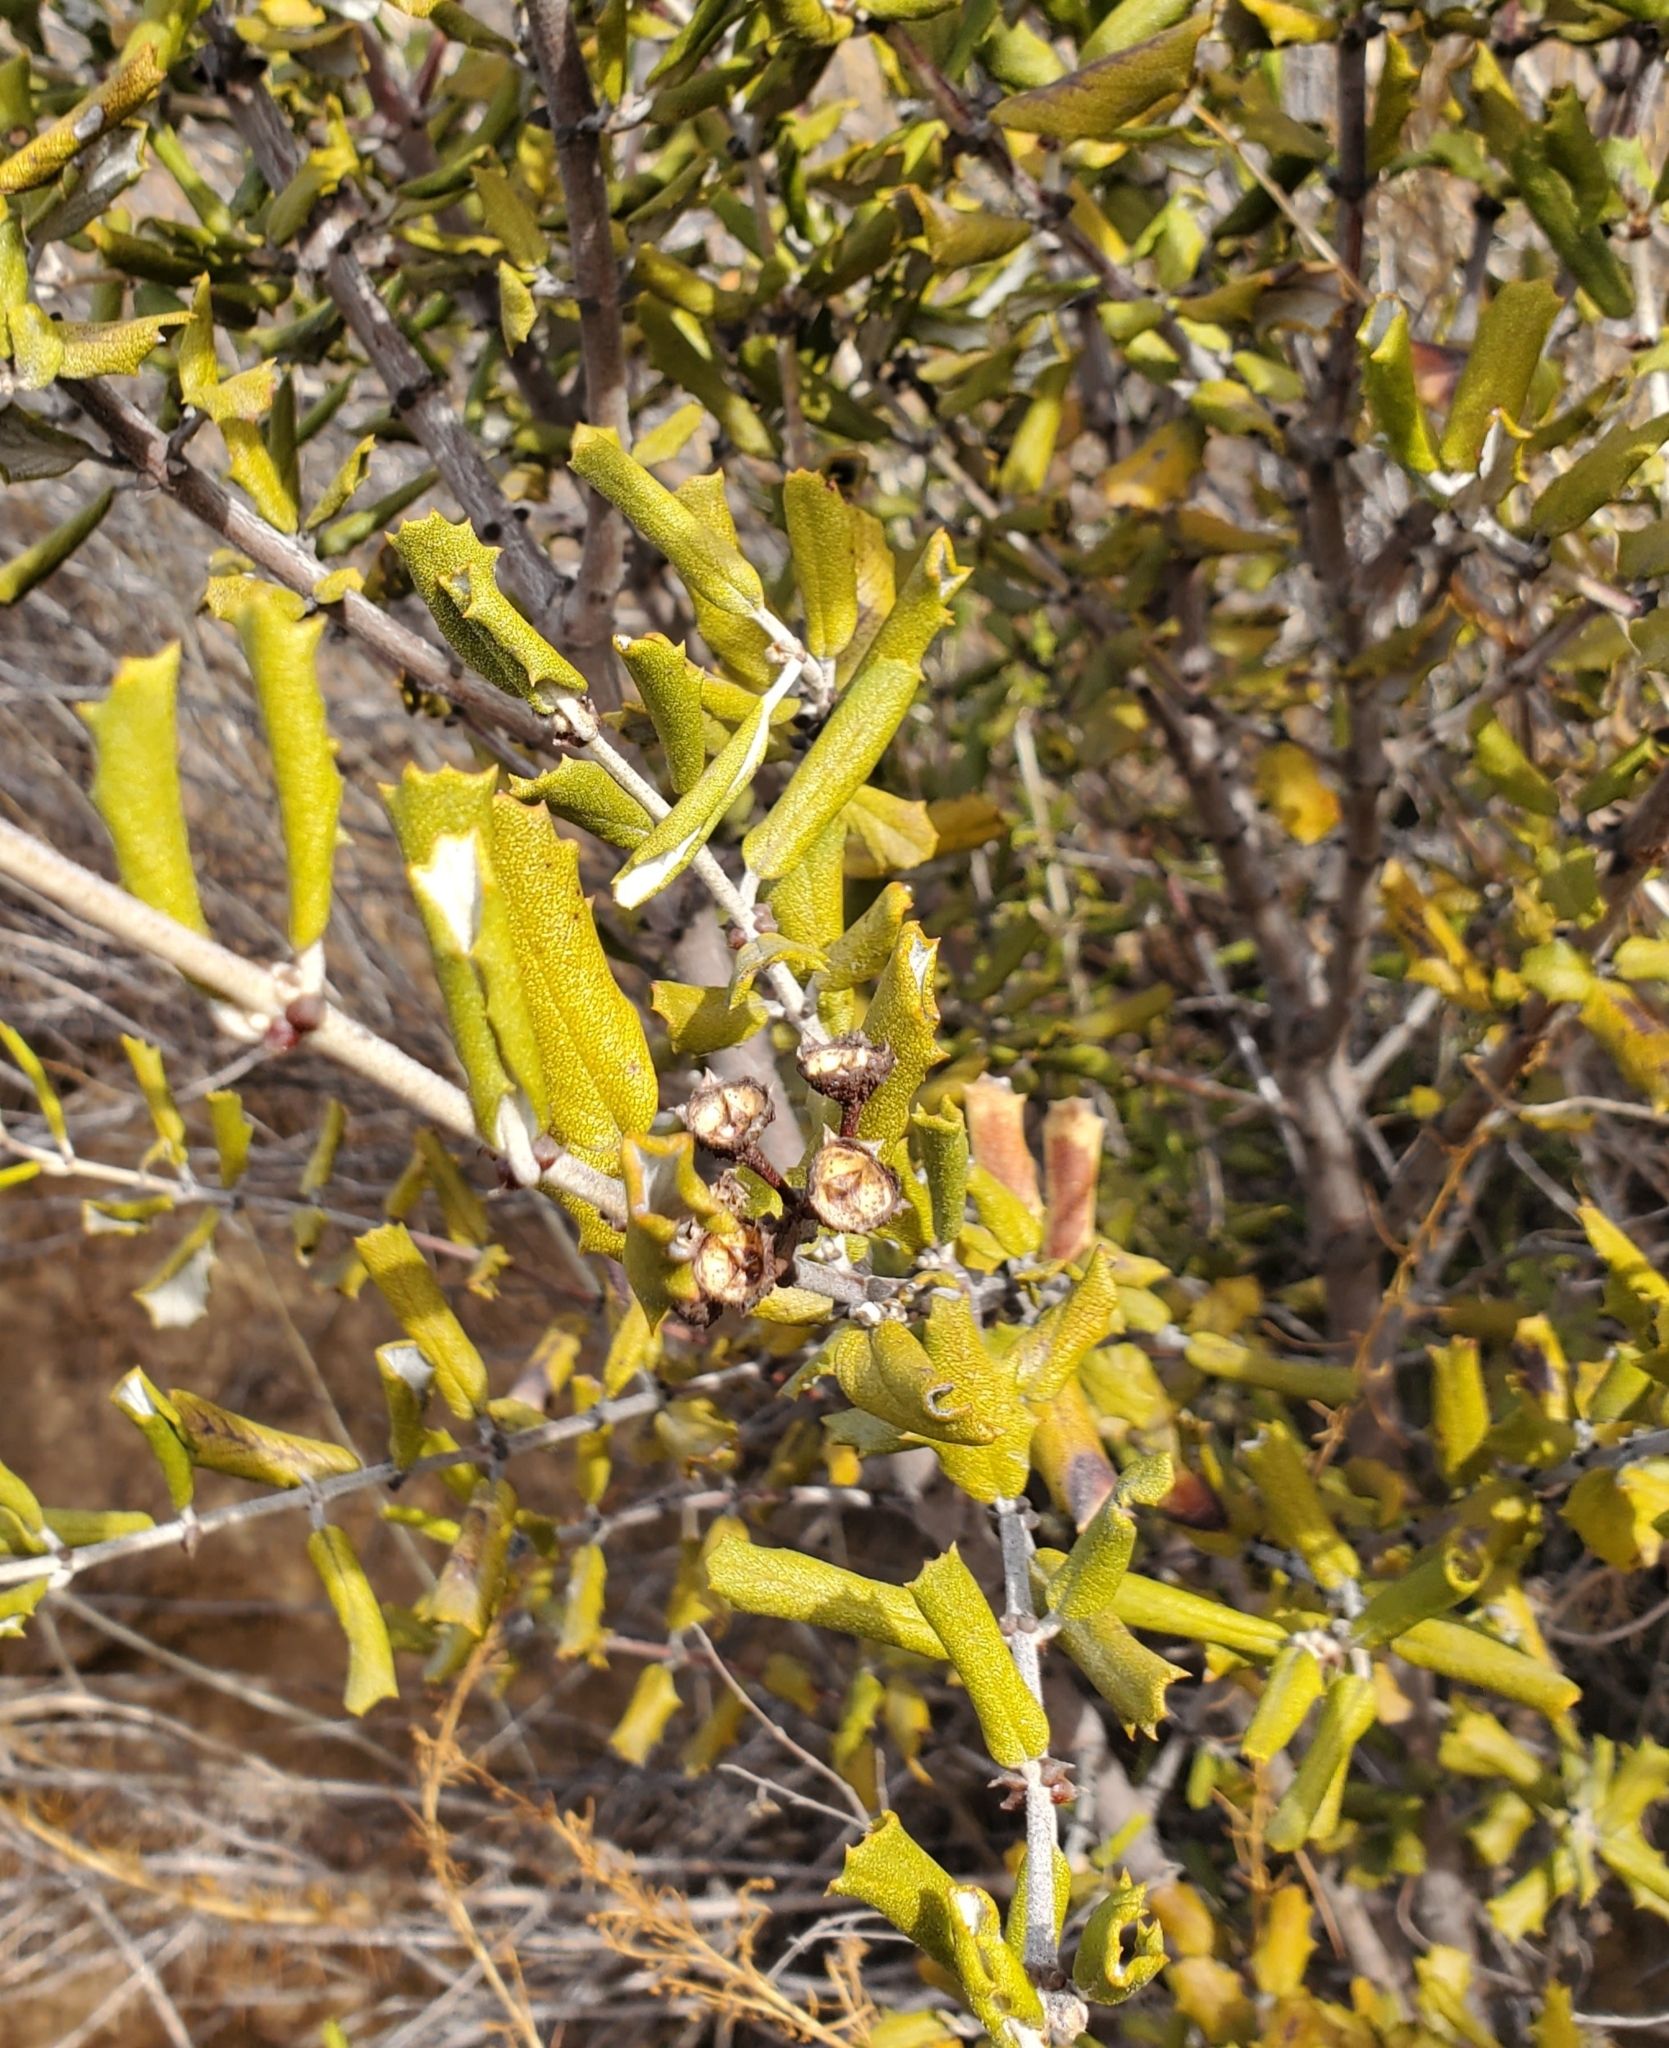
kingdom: Plantae
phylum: Tracheophyta
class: Magnoliopsida
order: Rosales
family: Rhamnaceae
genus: Ceanothus
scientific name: Ceanothus crassifolius
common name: Hoaryleaf ceanothus
